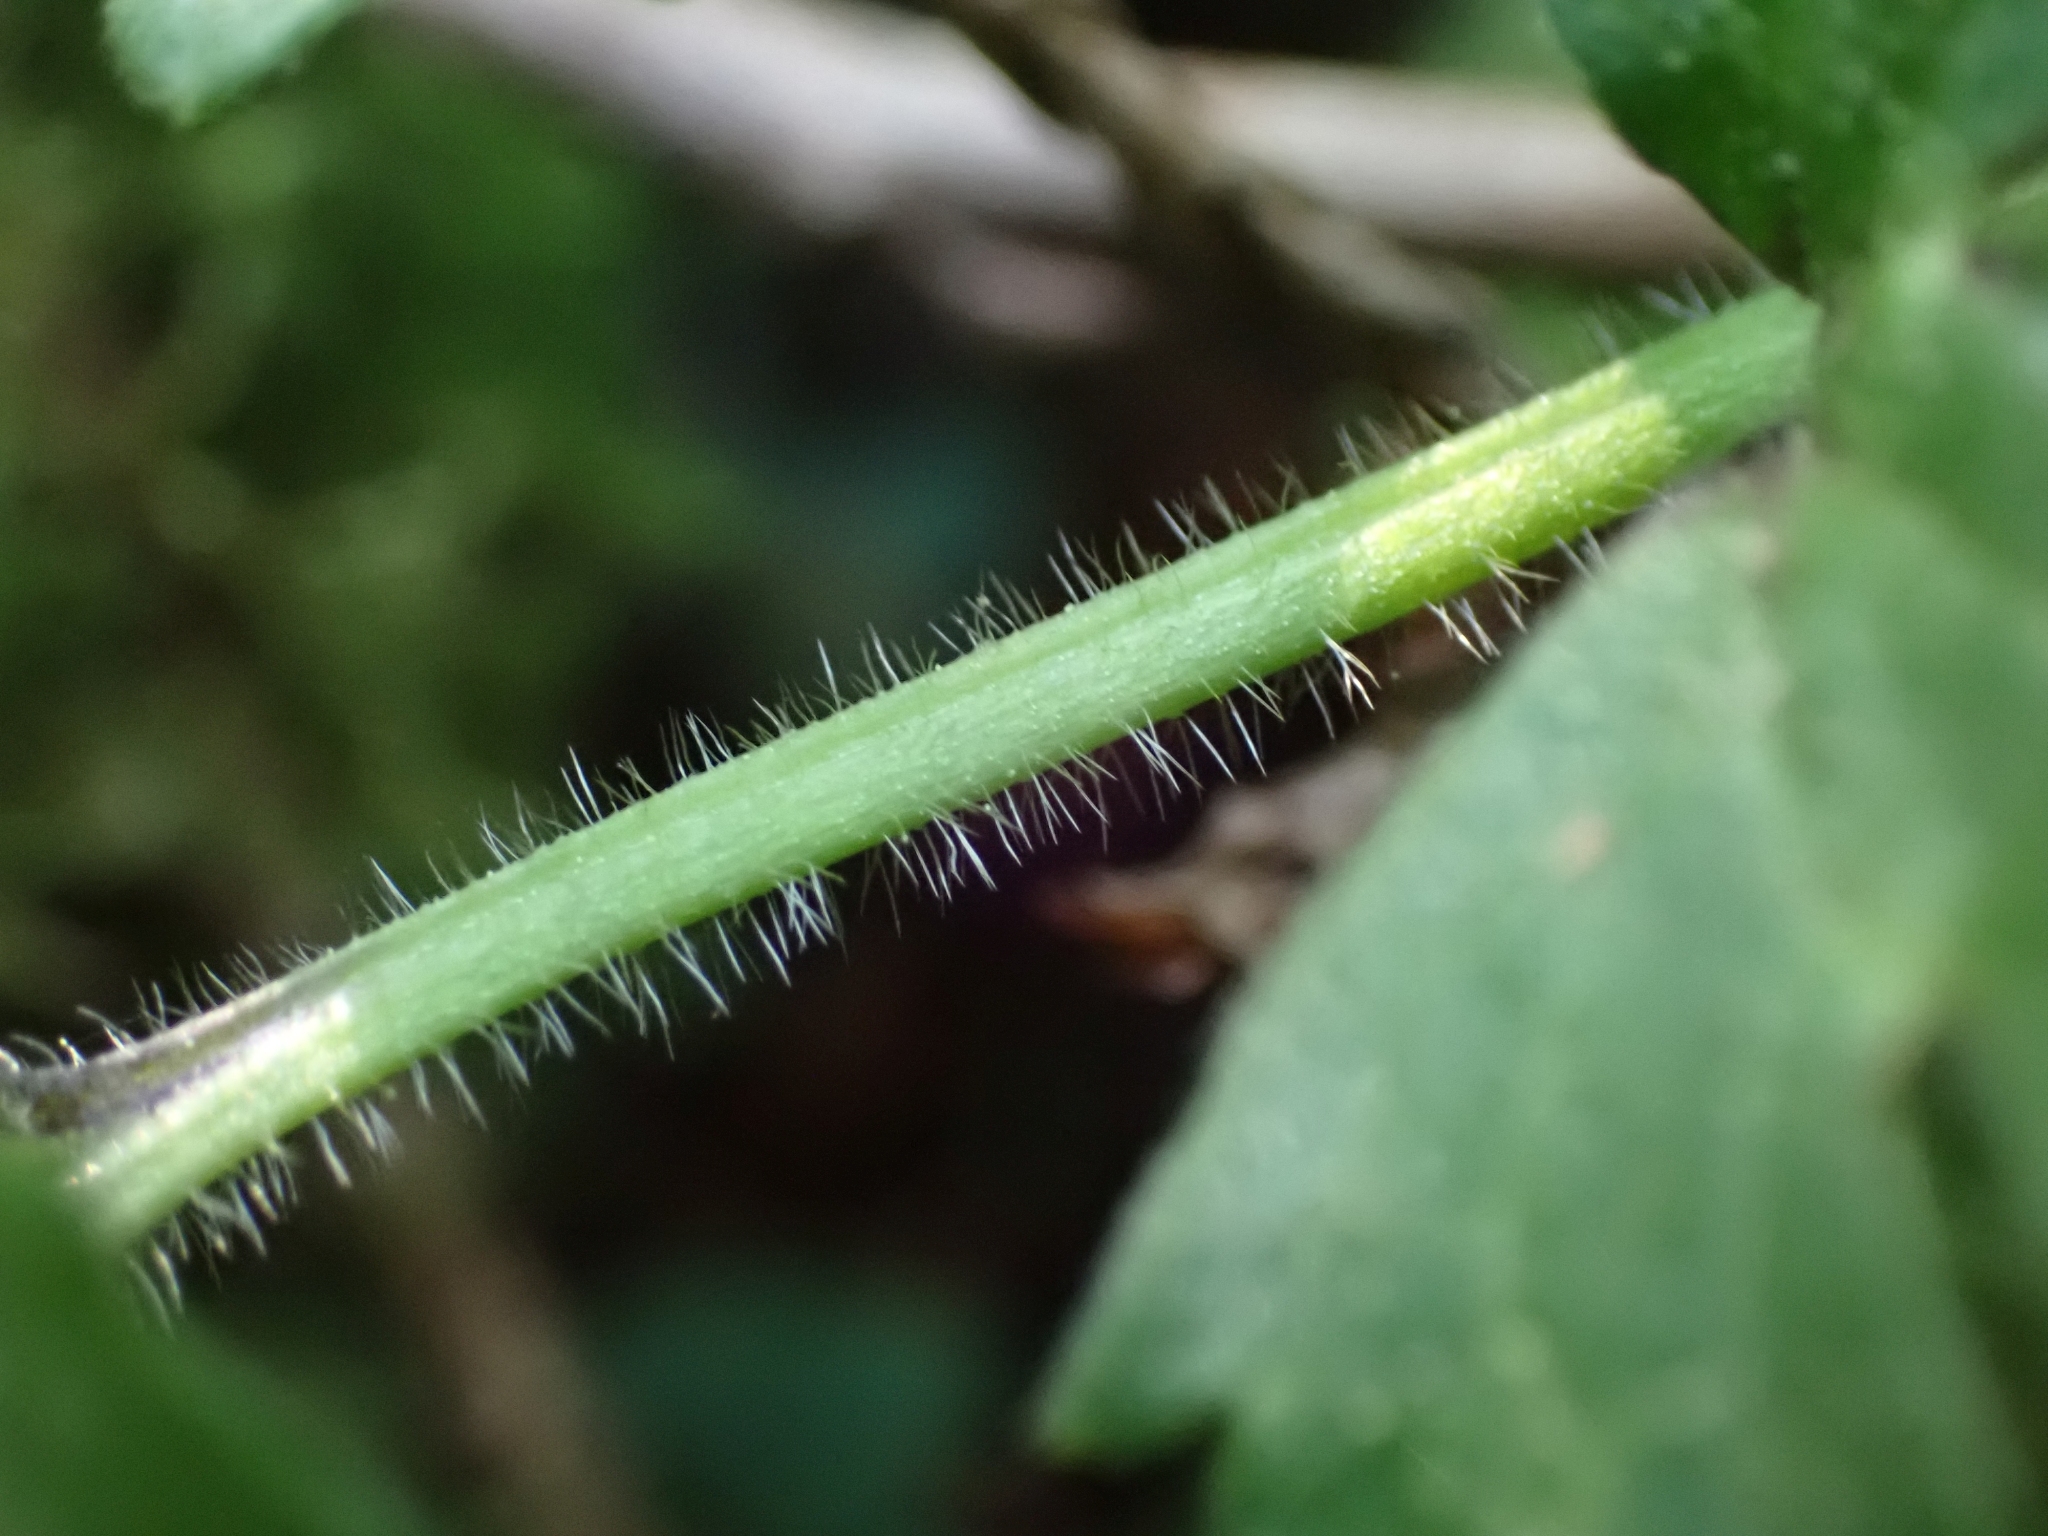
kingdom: Plantae
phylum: Tracheophyta
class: Magnoliopsida
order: Ranunculales
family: Ranunculaceae
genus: Ranunculus
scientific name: Ranunculus repens
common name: Creeping buttercup
